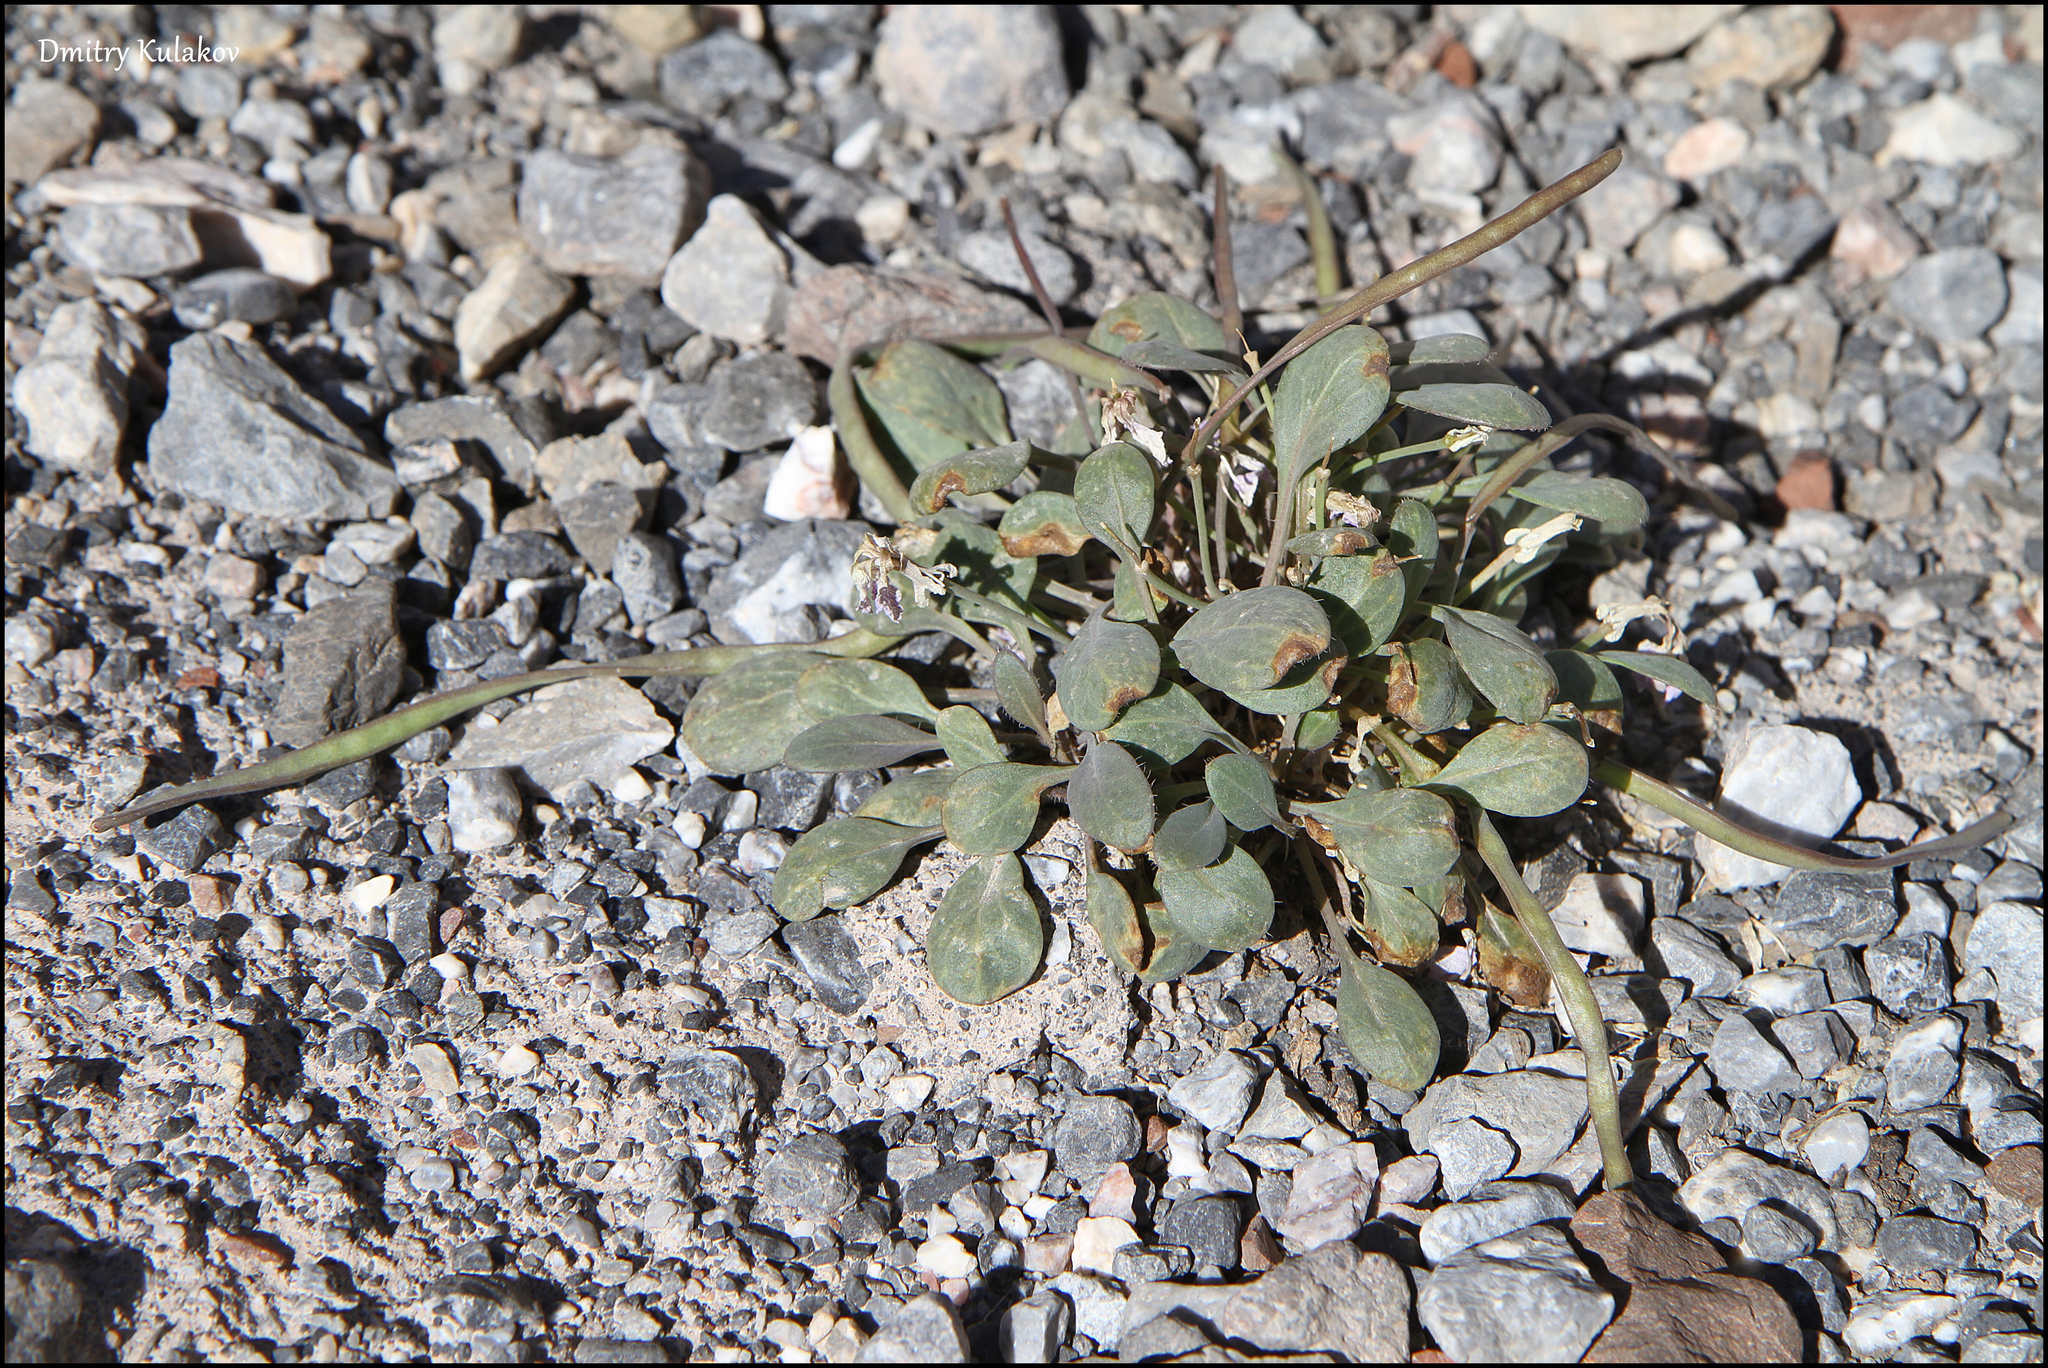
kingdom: Plantae
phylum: Tracheophyta
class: Magnoliopsida
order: Brassicales
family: Brassicaceae
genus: Leiospora
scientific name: Leiospora subscapigera
